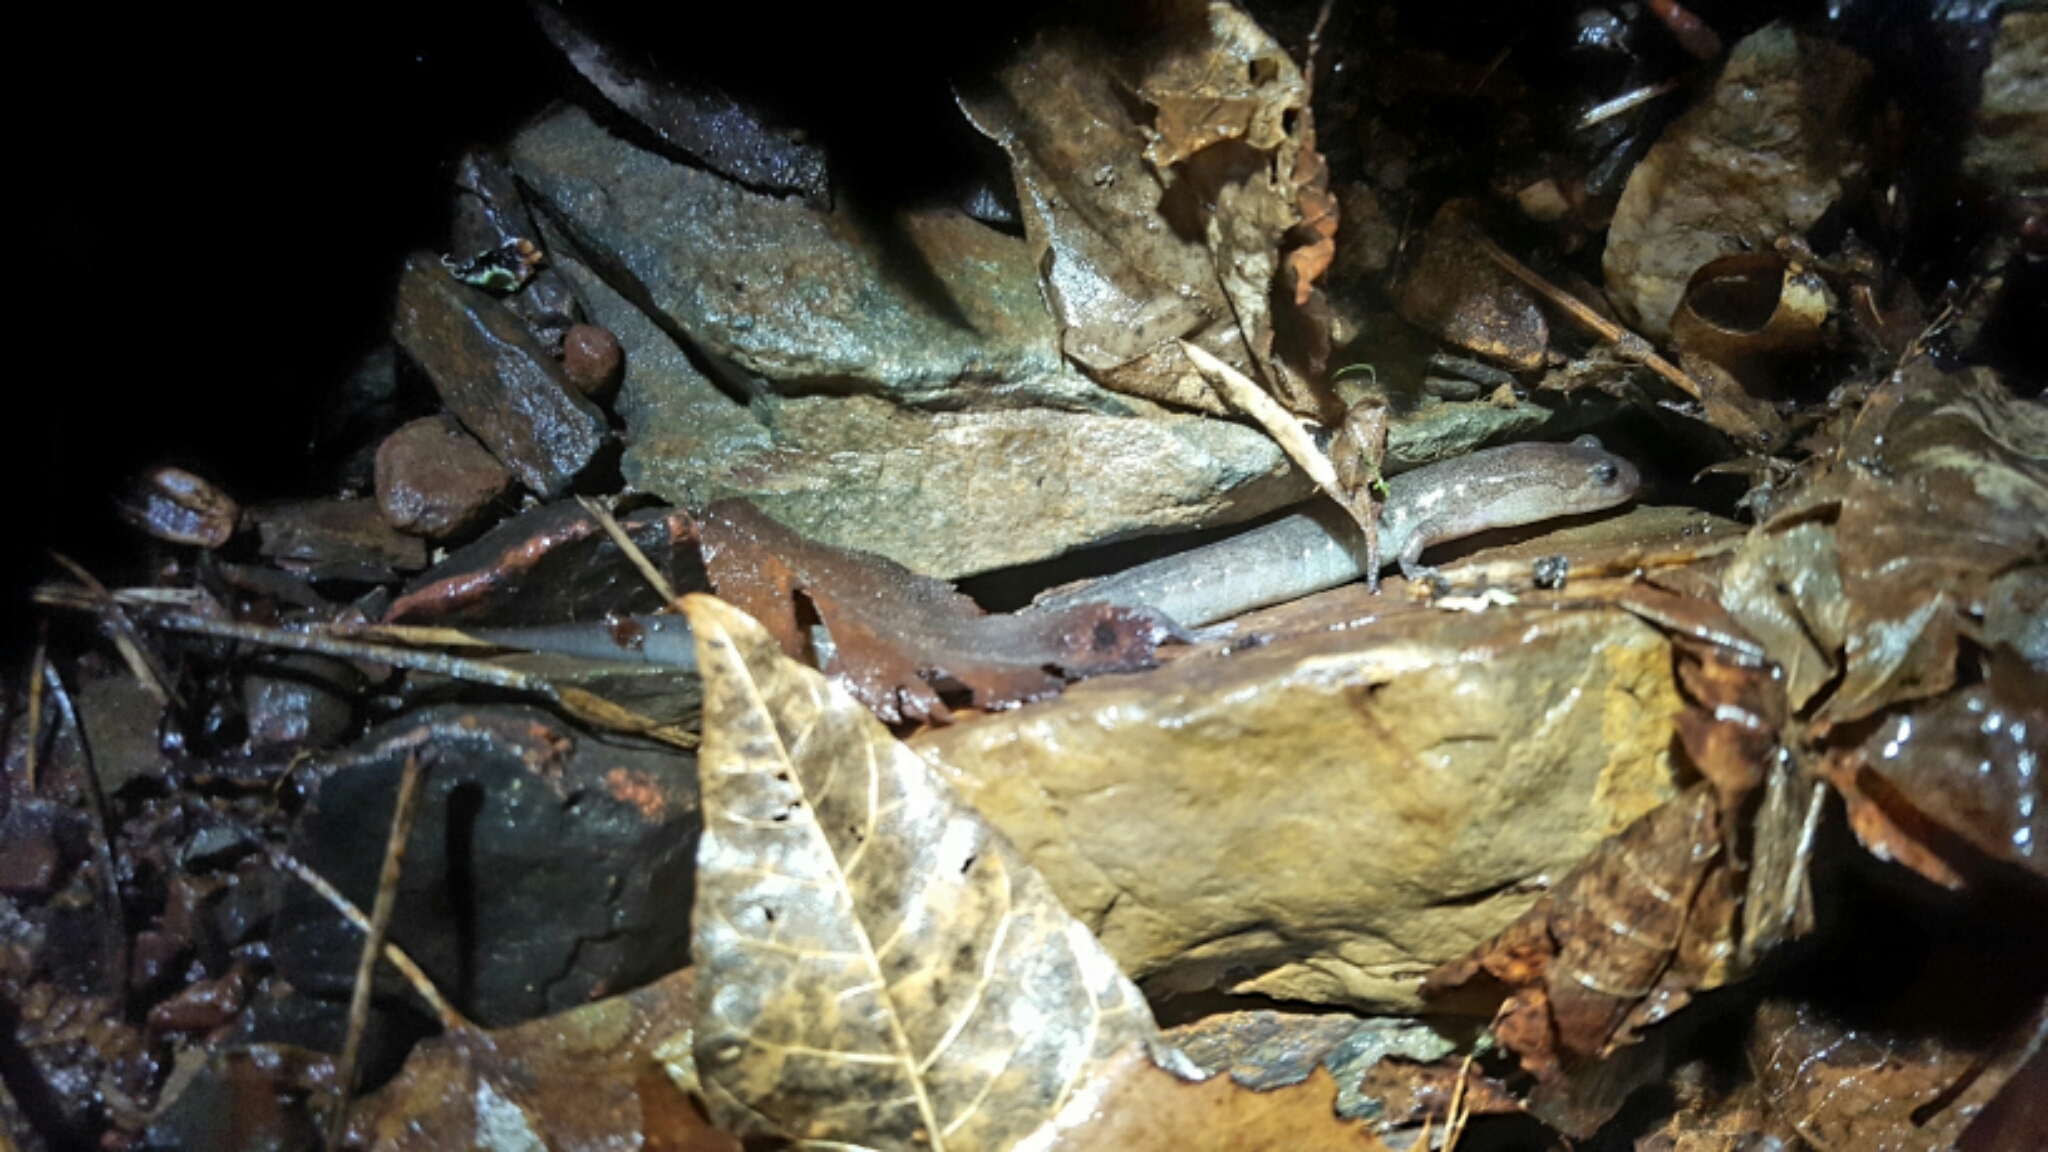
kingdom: Animalia
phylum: Chordata
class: Amphibia
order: Caudata
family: Plethodontidae
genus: Desmognathus
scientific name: Desmognathus brimleyorum
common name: Ouachita dusky salamander
